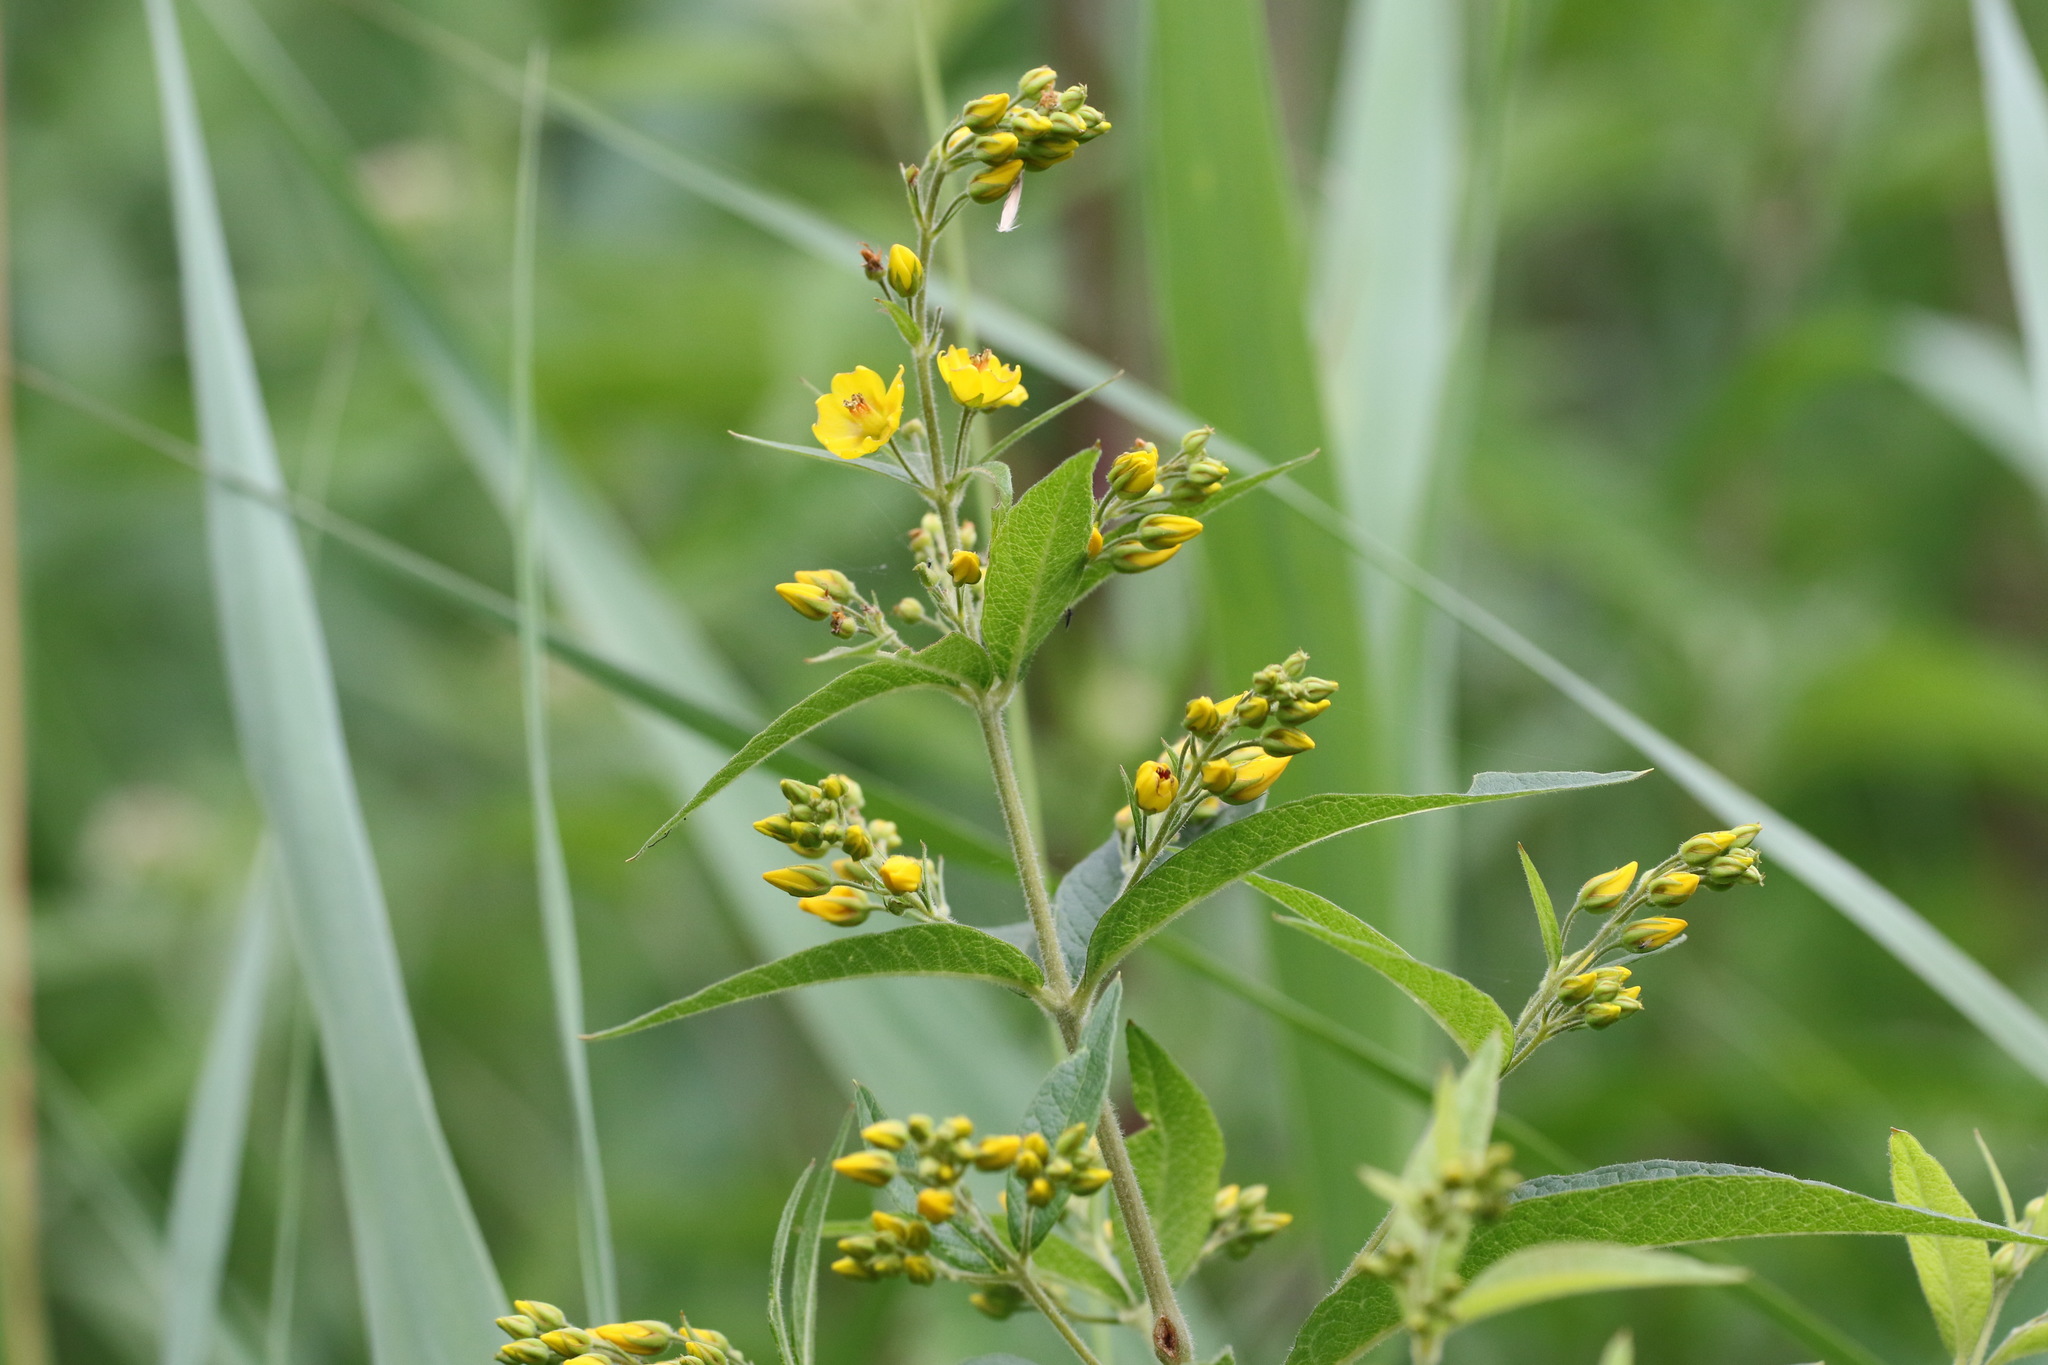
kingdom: Plantae
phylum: Tracheophyta
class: Magnoliopsida
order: Ericales
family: Primulaceae
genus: Lysimachia
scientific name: Lysimachia vulgaris
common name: Yellow loosestrife
